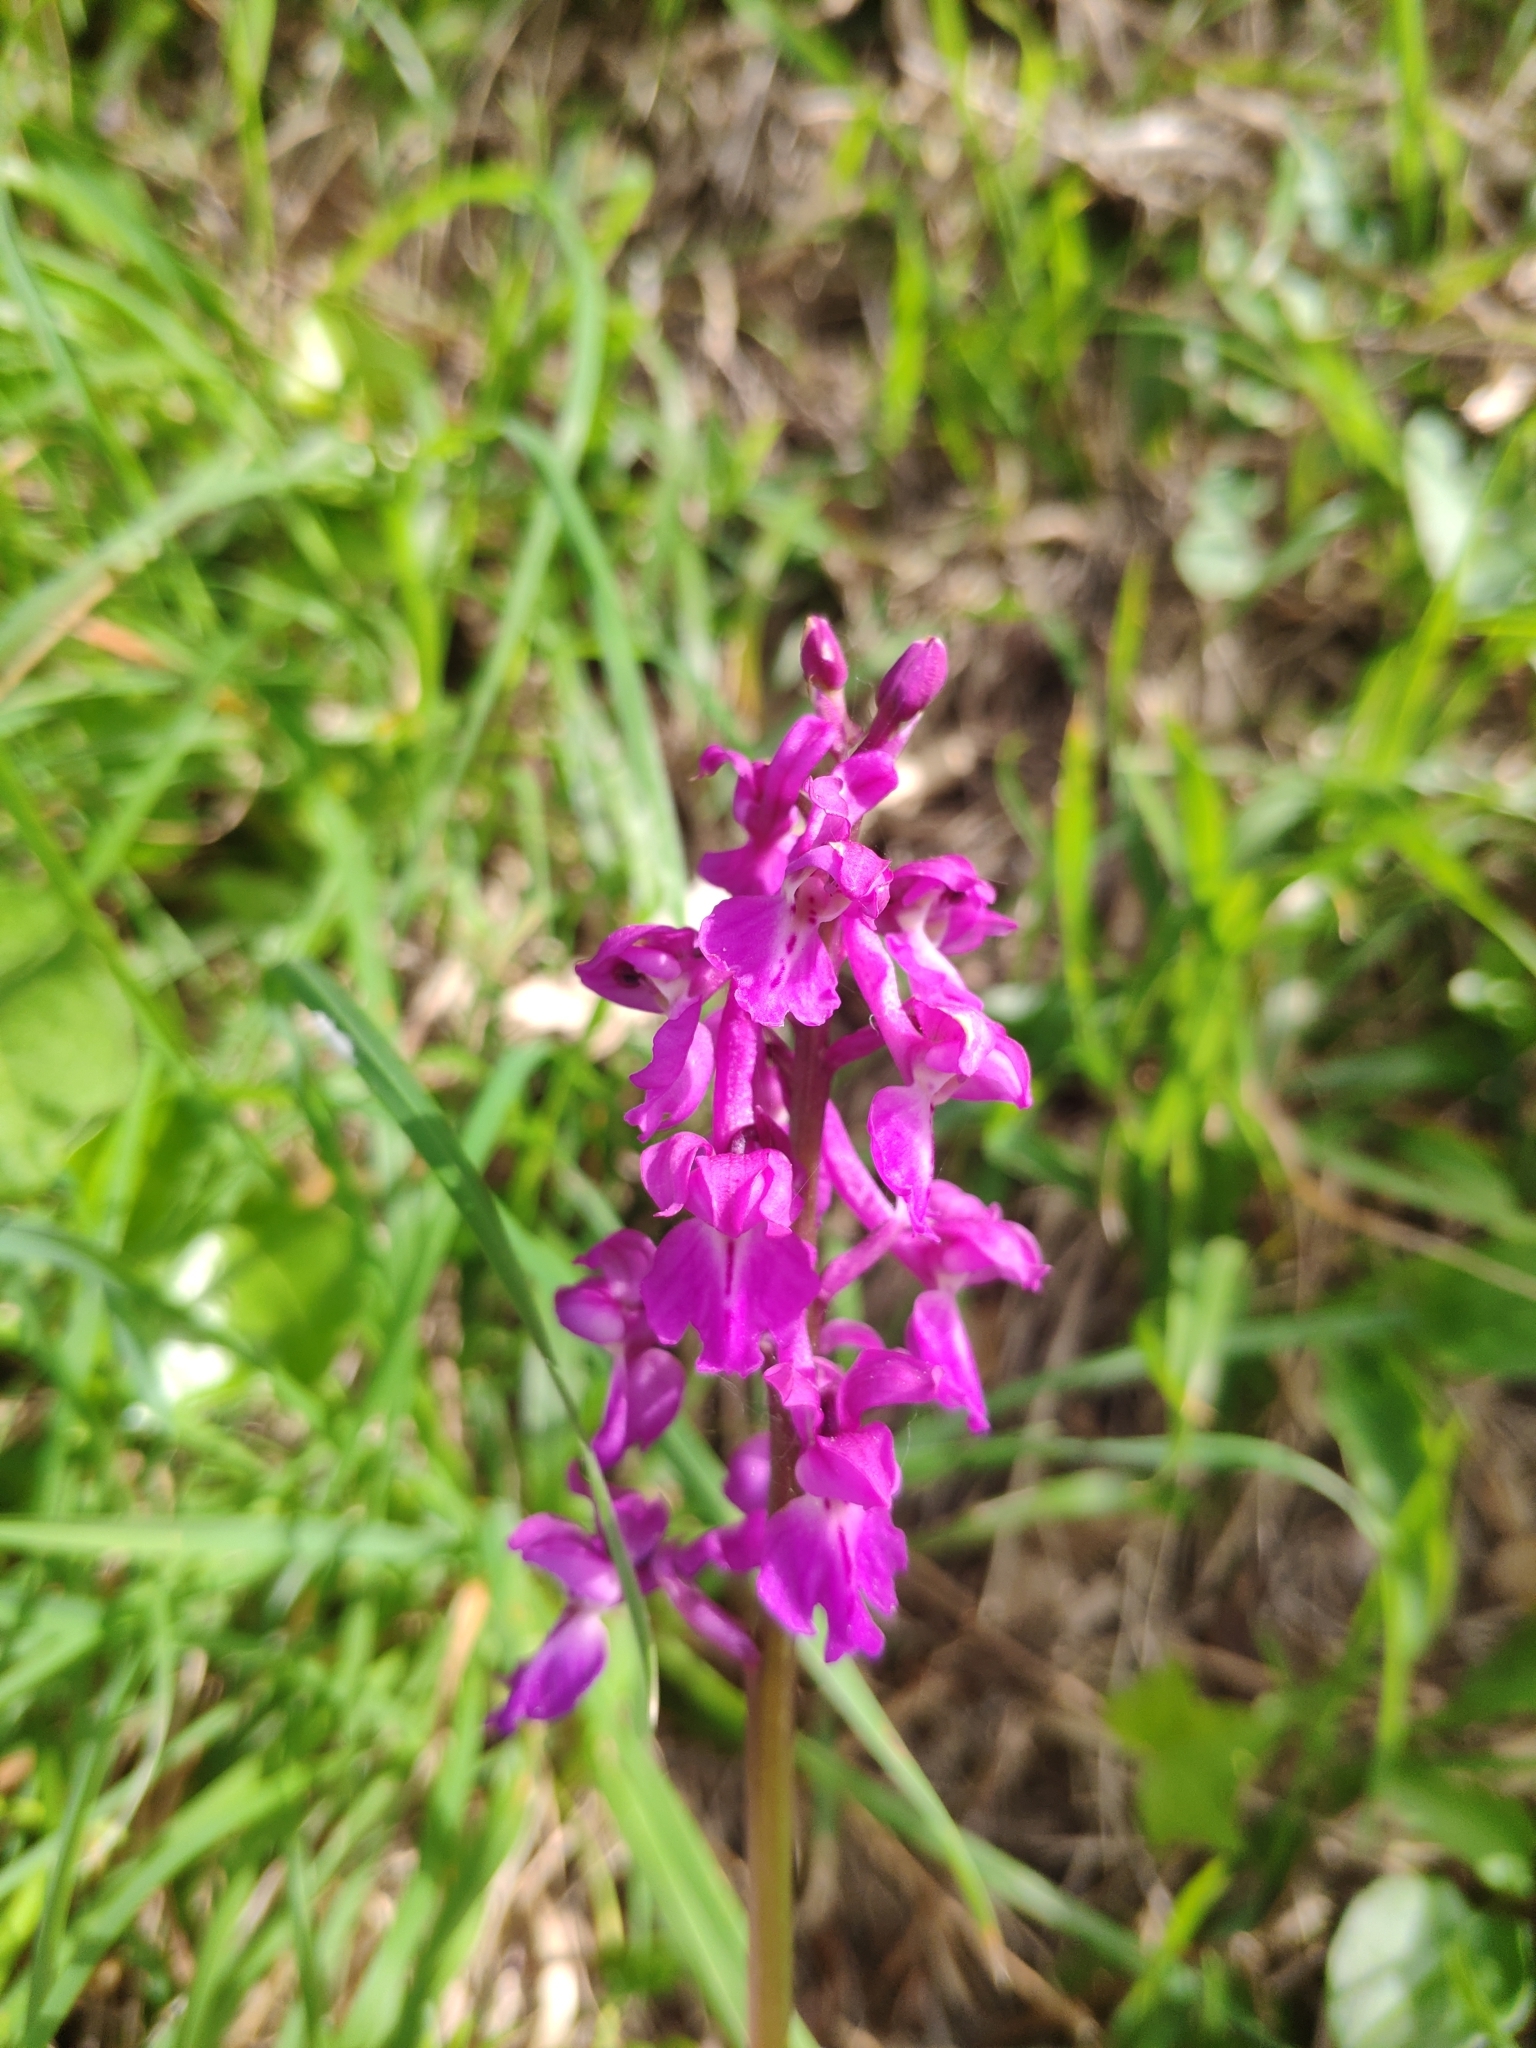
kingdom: Plantae
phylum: Tracheophyta
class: Liliopsida
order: Asparagales
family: Orchidaceae
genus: Orchis
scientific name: Orchis mascula
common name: Early-purple orchid
